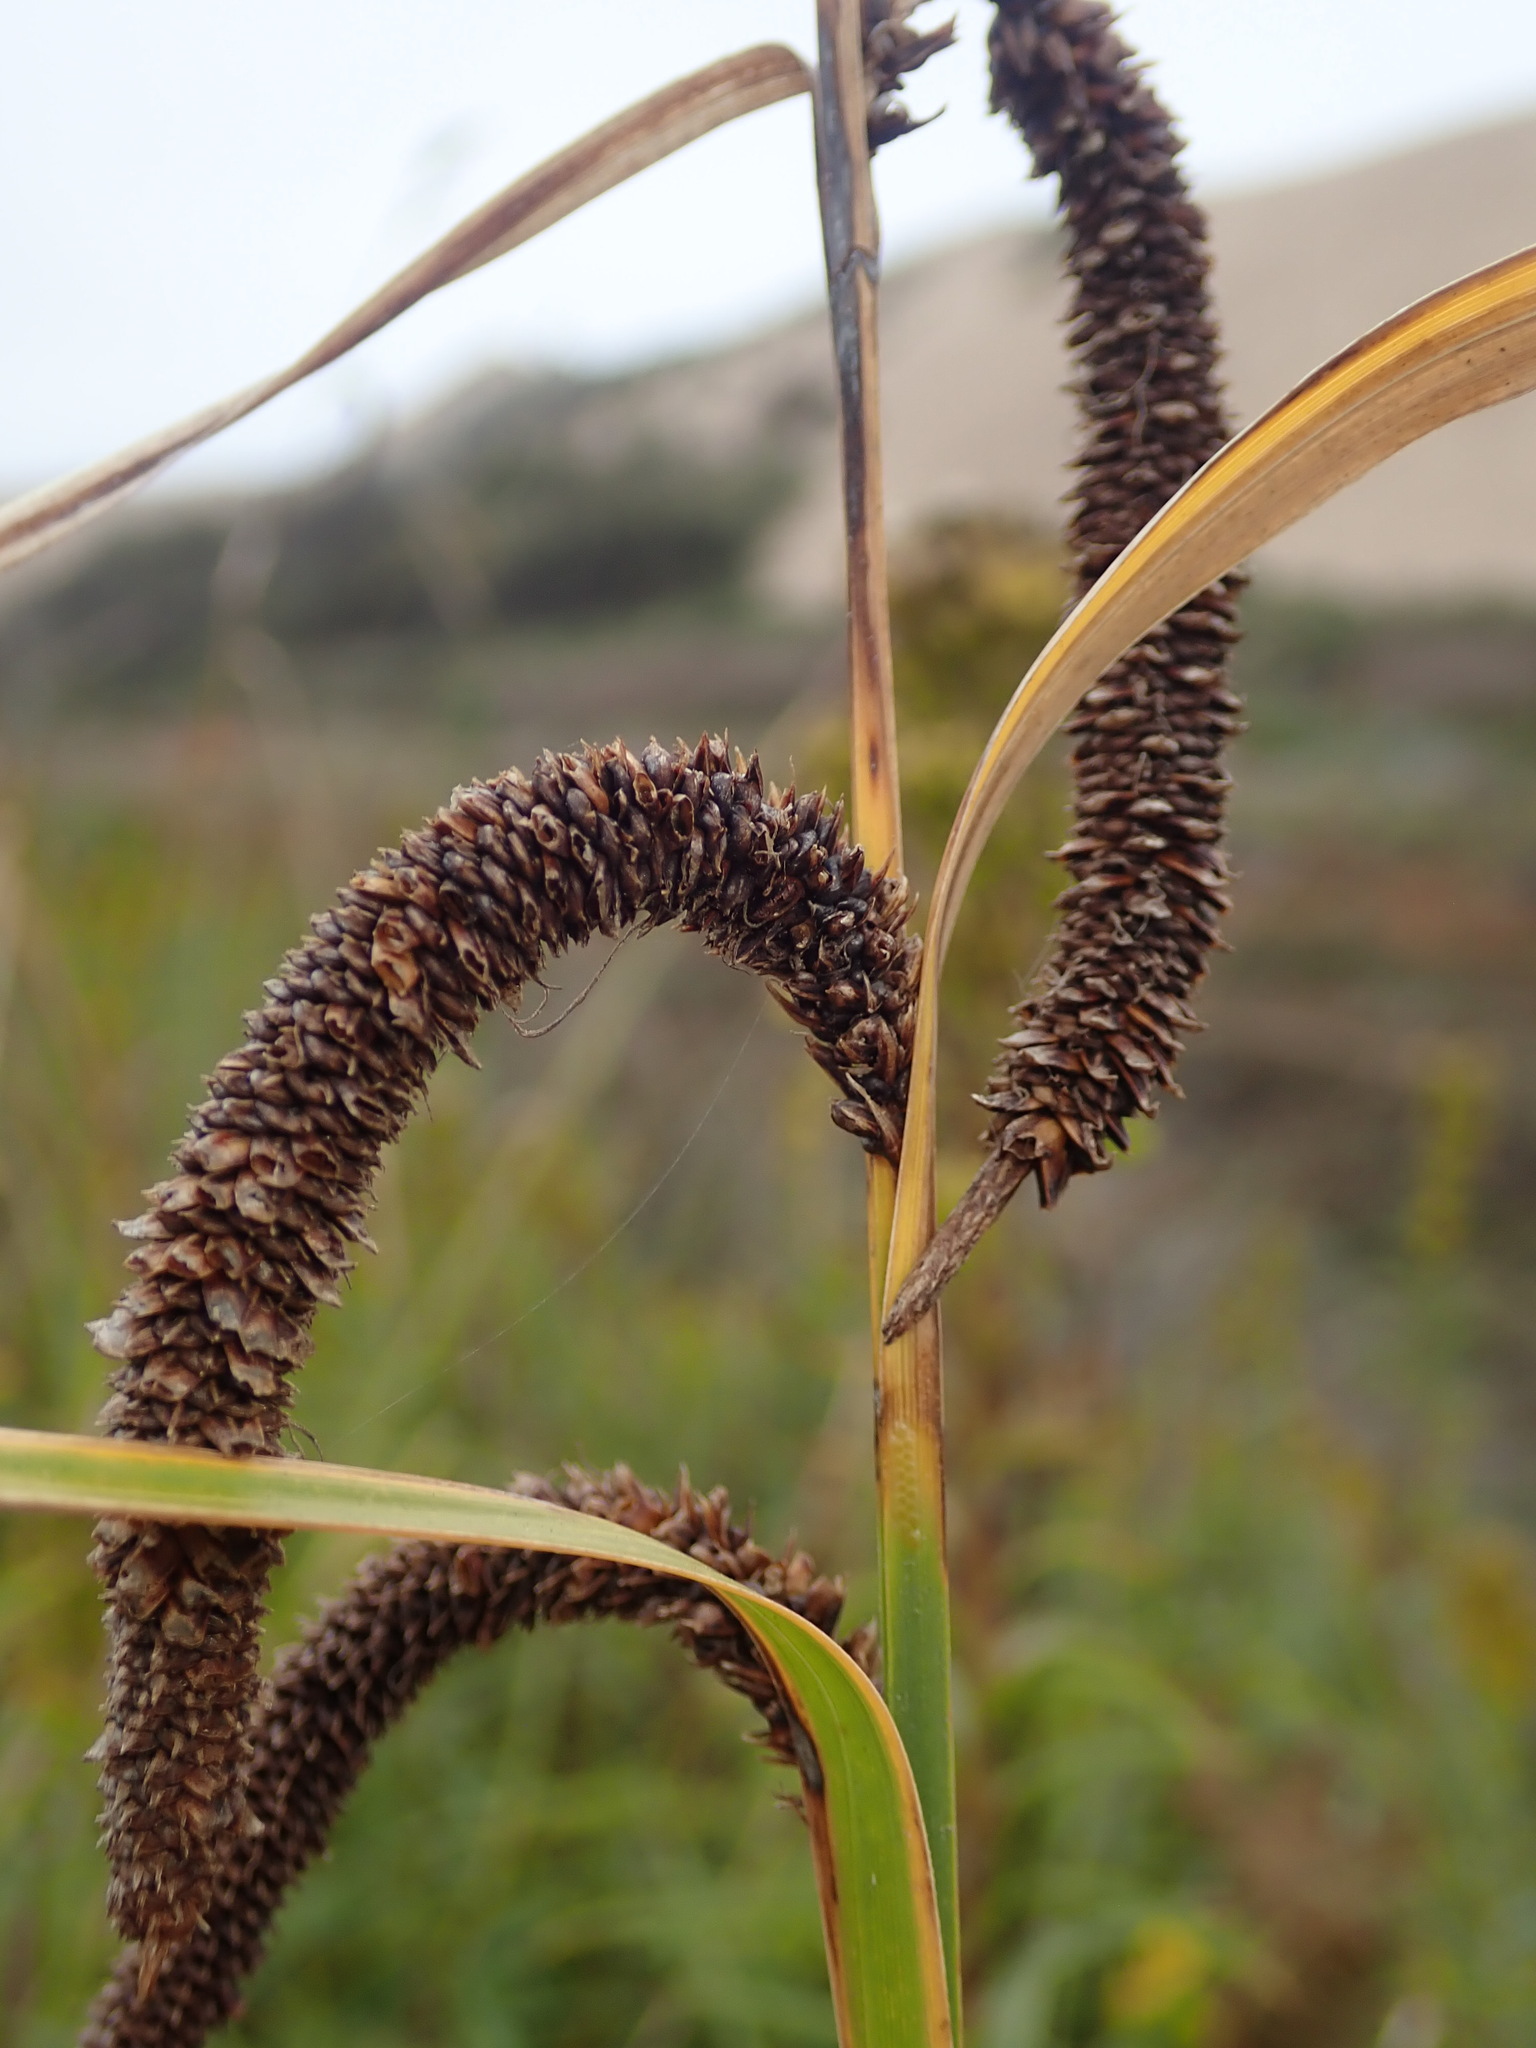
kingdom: Plantae
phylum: Tracheophyta
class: Liliopsida
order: Poales
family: Cyperaceae
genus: Carex
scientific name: Carex obnupta
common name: Slough sedge
